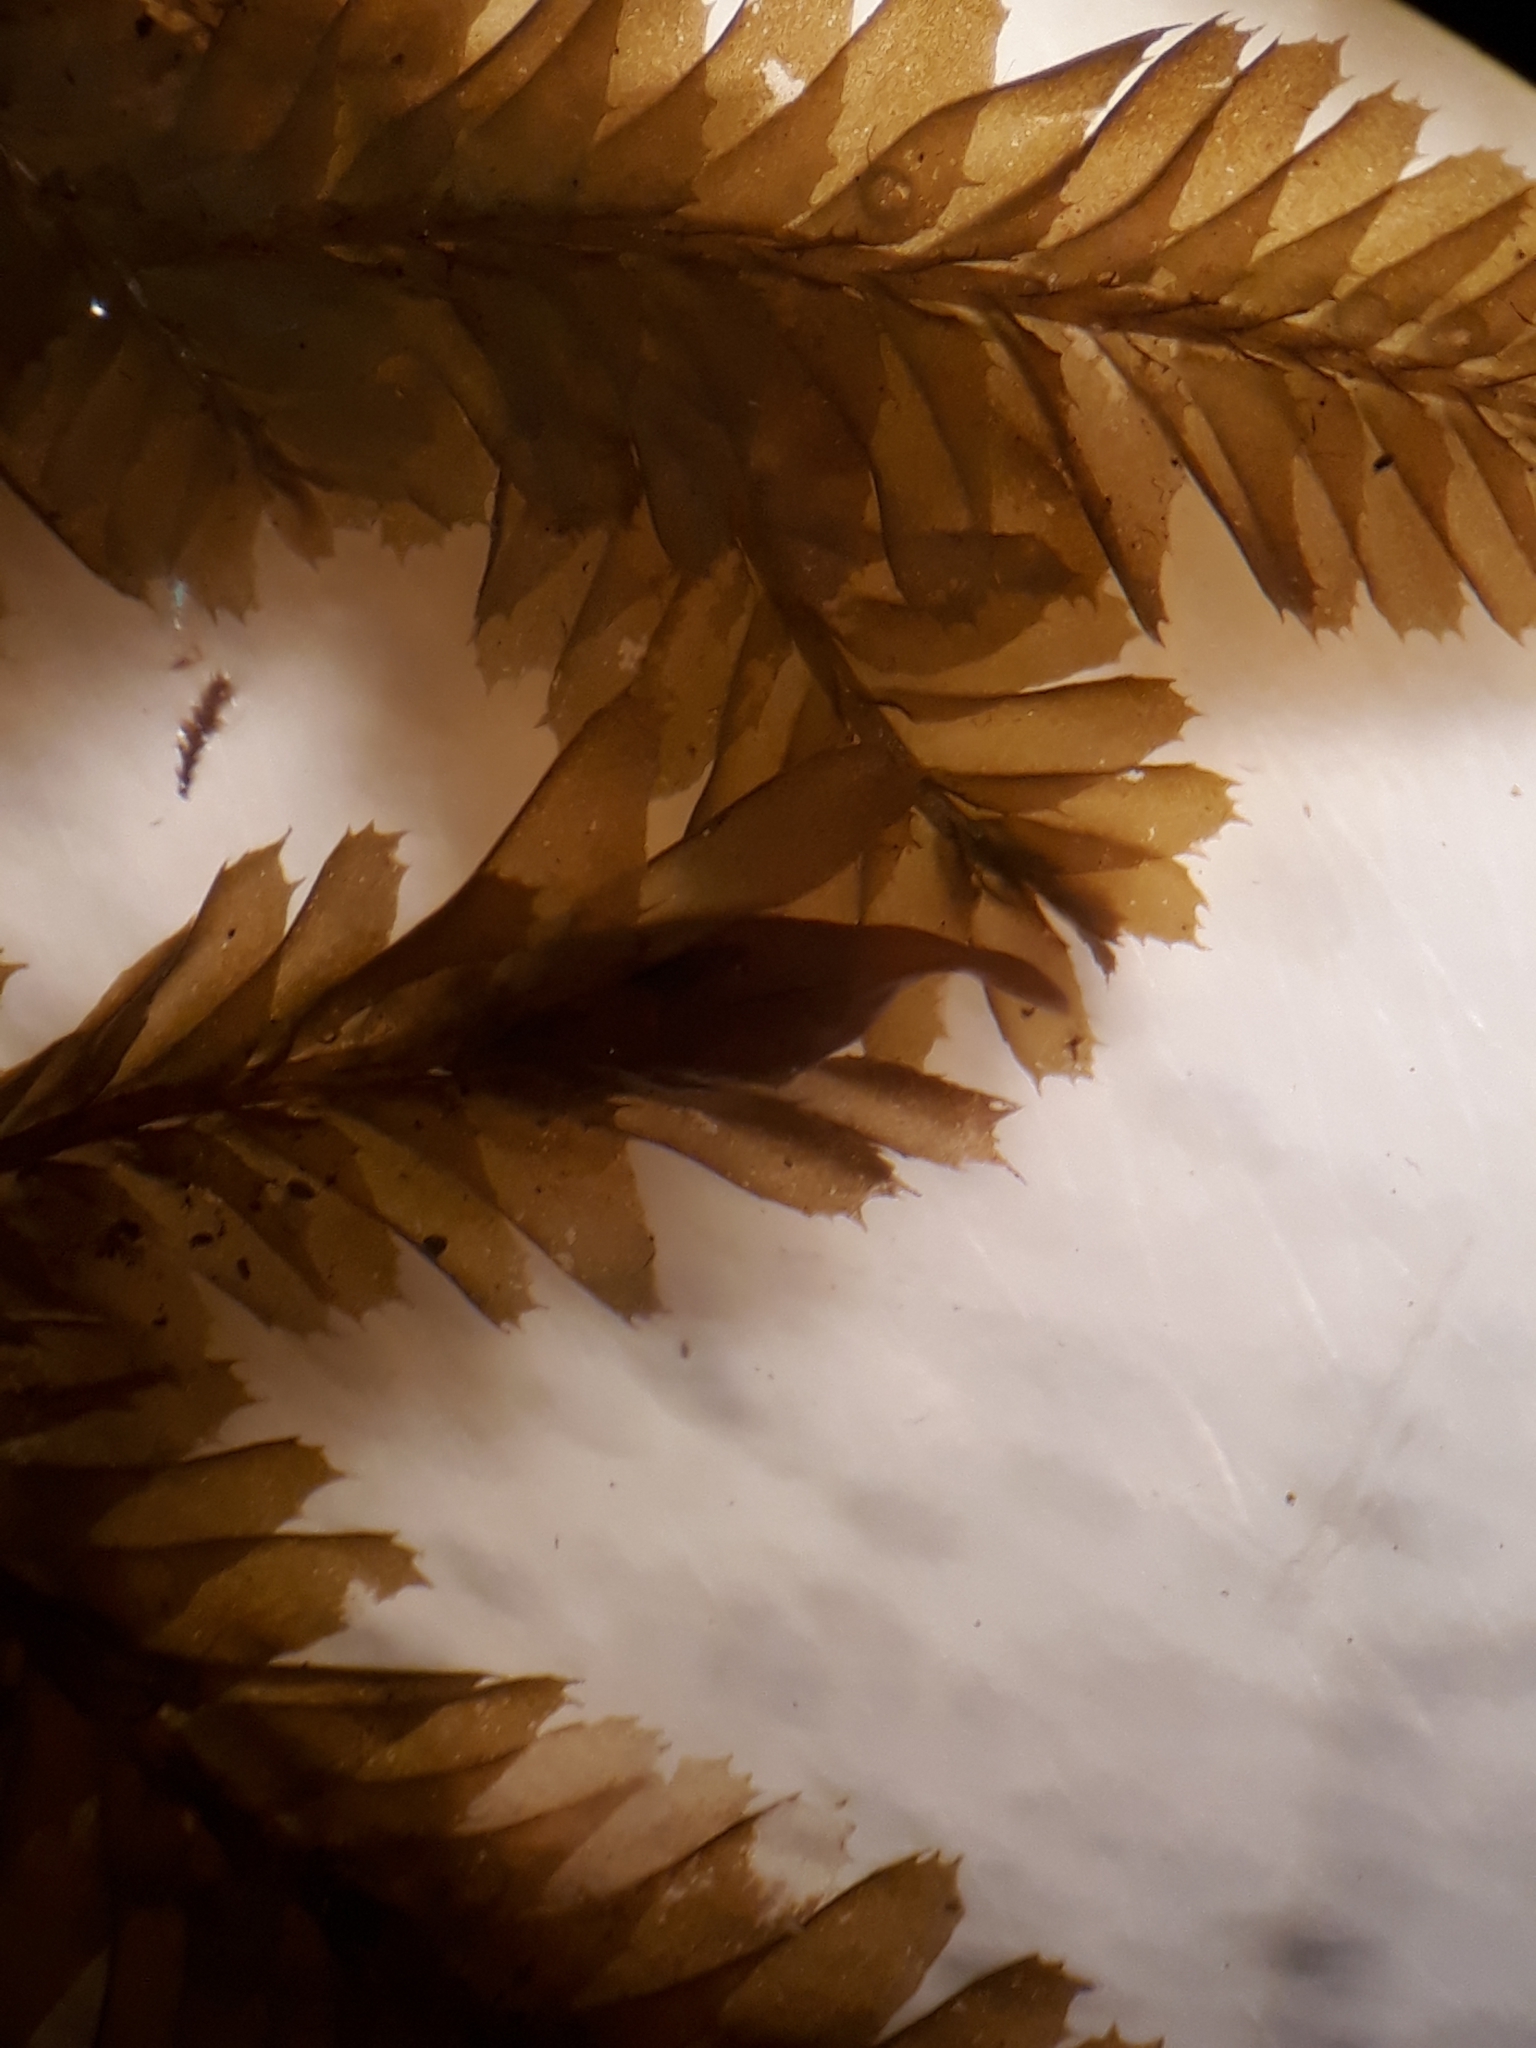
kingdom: Plantae
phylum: Marchantiophyta
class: Jungermanniopsida
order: Jungermanniales
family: Plagiochilaceae
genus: Plagiochila
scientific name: Plagiochila trispicata
